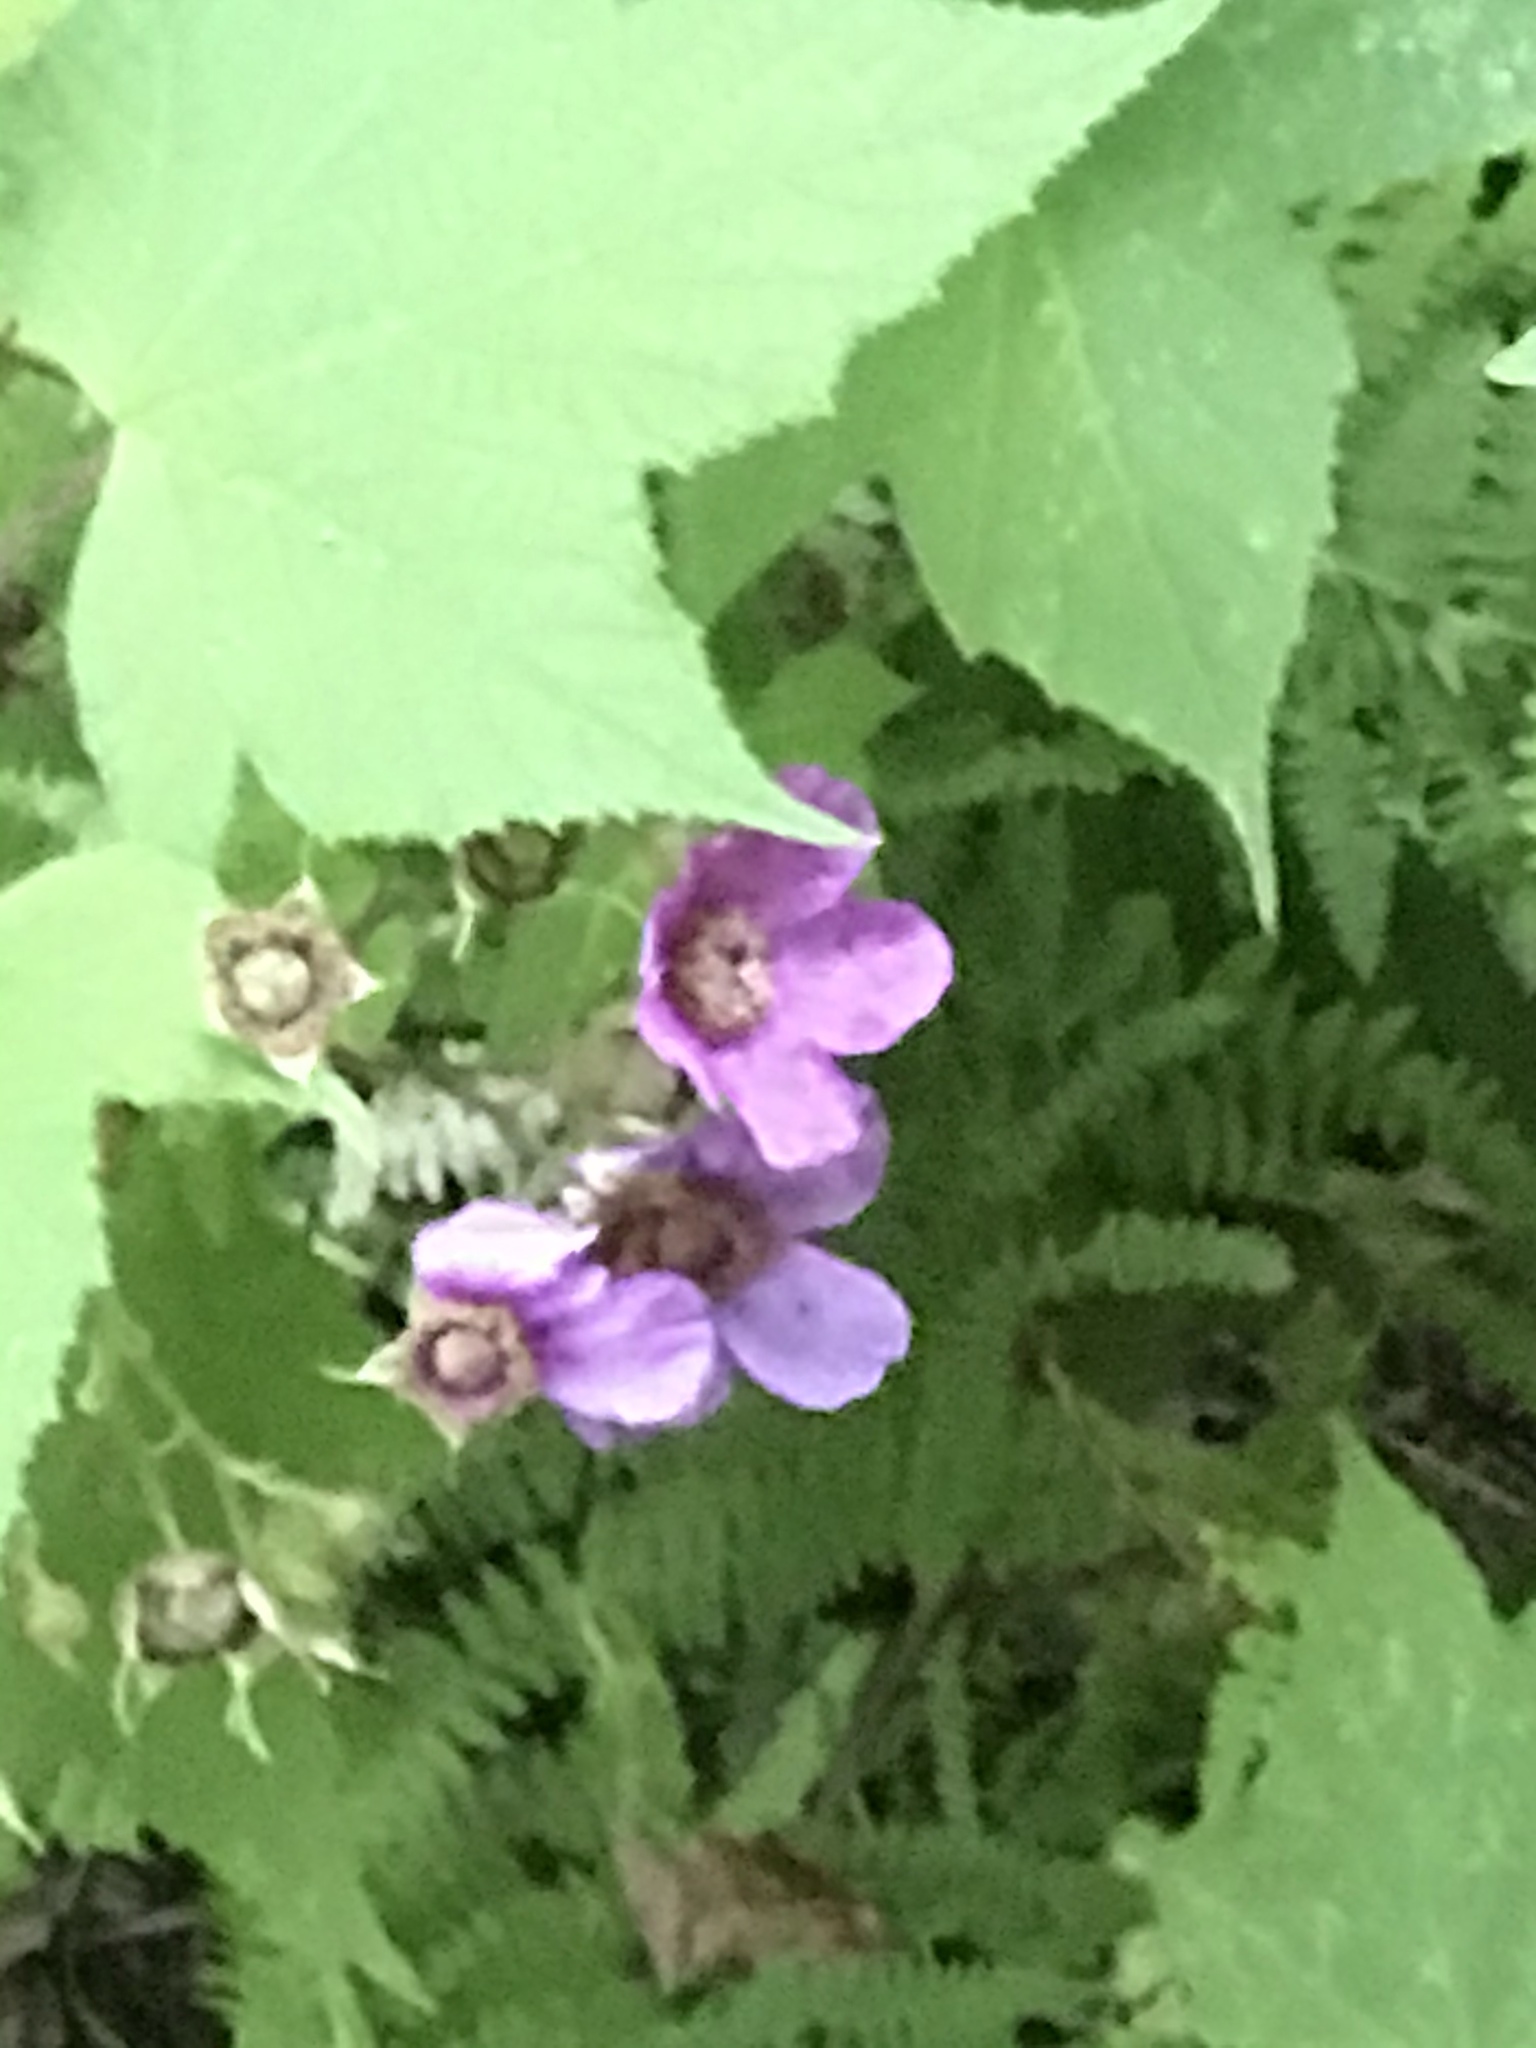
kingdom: Plantae
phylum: Tracheophyta
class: Magnoliopsida
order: Rosales
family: Rosaceae
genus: Rubus
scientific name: Rubus odoratus
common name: Purple-flowered raspberry
